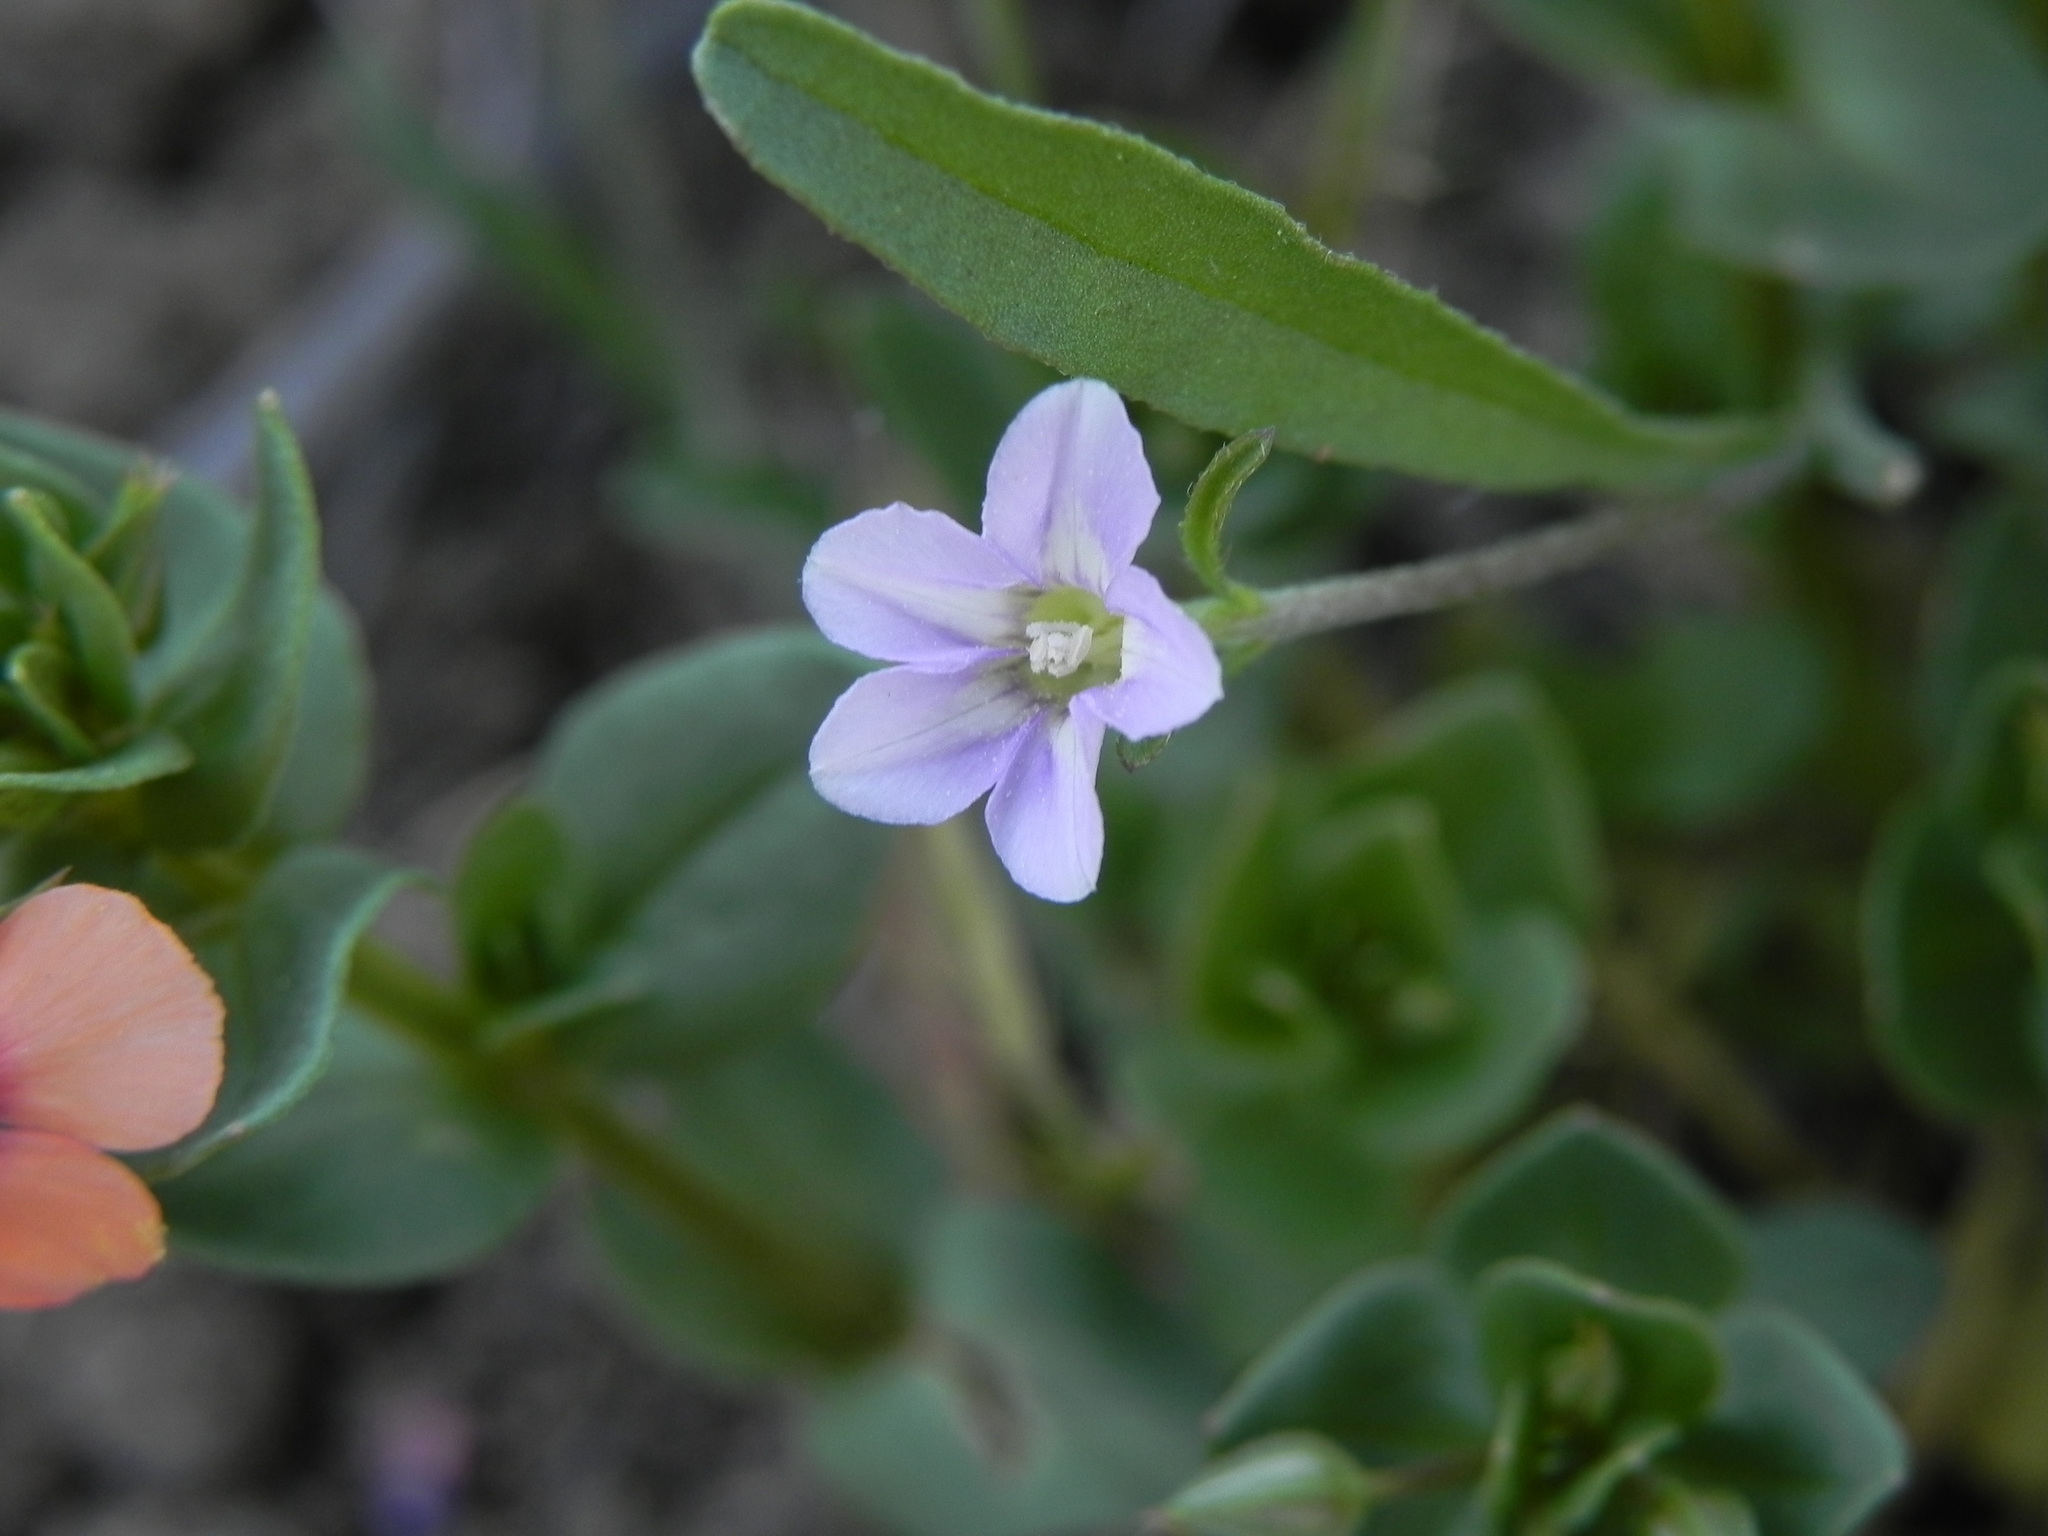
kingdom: Plantae
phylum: Tracheophyta
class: Magnoliopsida
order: Solanales
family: Convolvulaceae
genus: Convolvulus
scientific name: Convolvulus simulans
